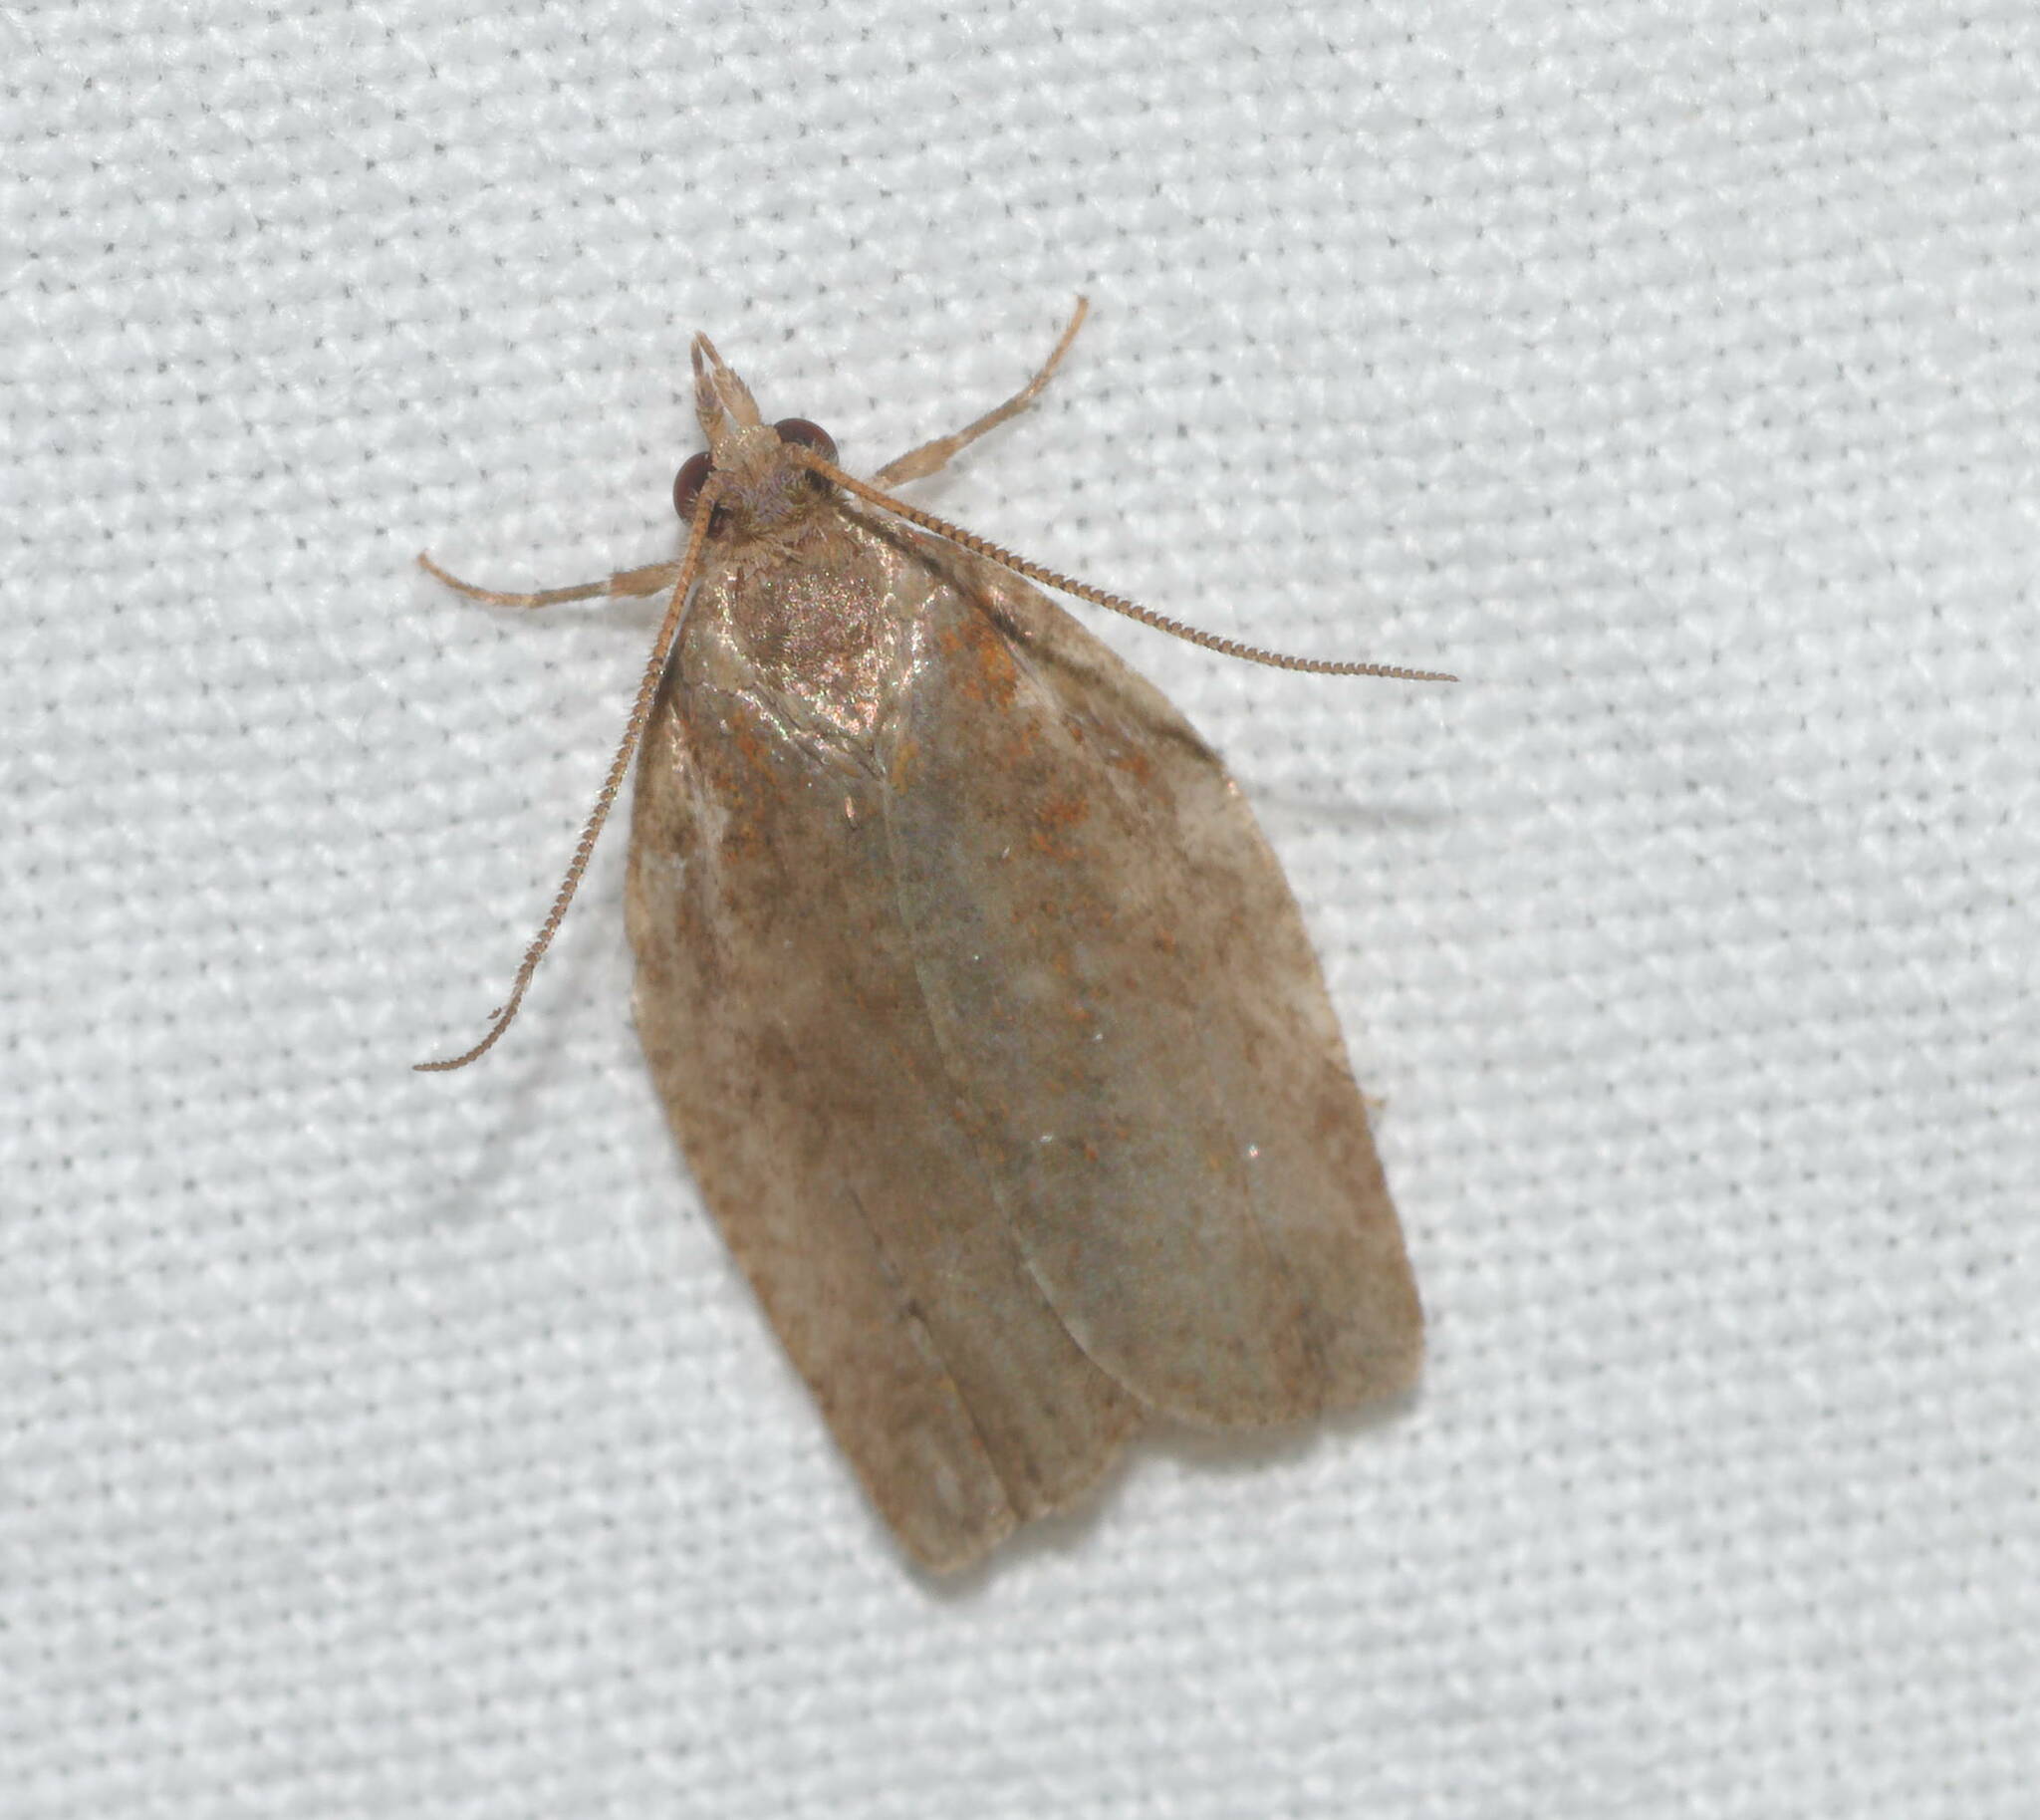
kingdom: Animalia
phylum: Arthropoda
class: Insecta
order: Lepidoptera
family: Tortricidae
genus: Spheterista
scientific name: Spheterista pleonectes
